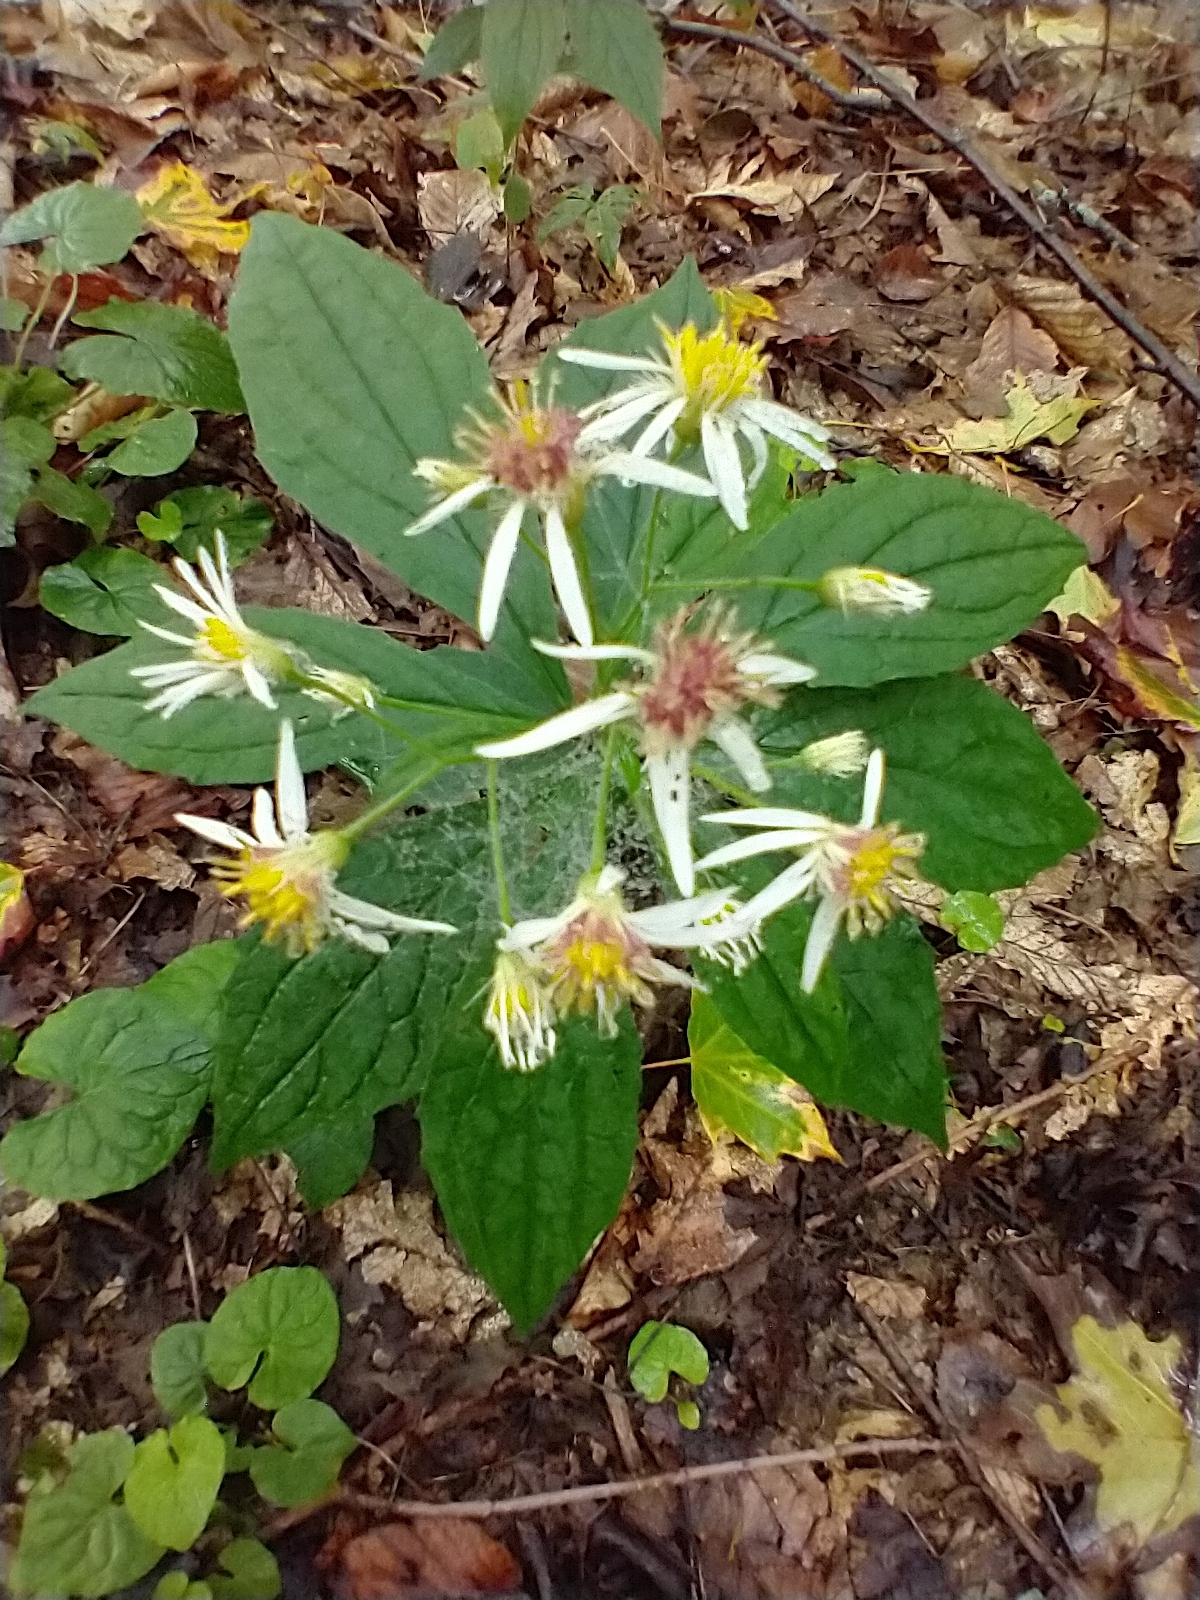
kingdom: Plantae
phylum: Tracheophyta
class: Magnoliopsida
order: Asterales
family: Asteraceae
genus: Oclemena
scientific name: Oclemena acuminata
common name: Mountain aster
